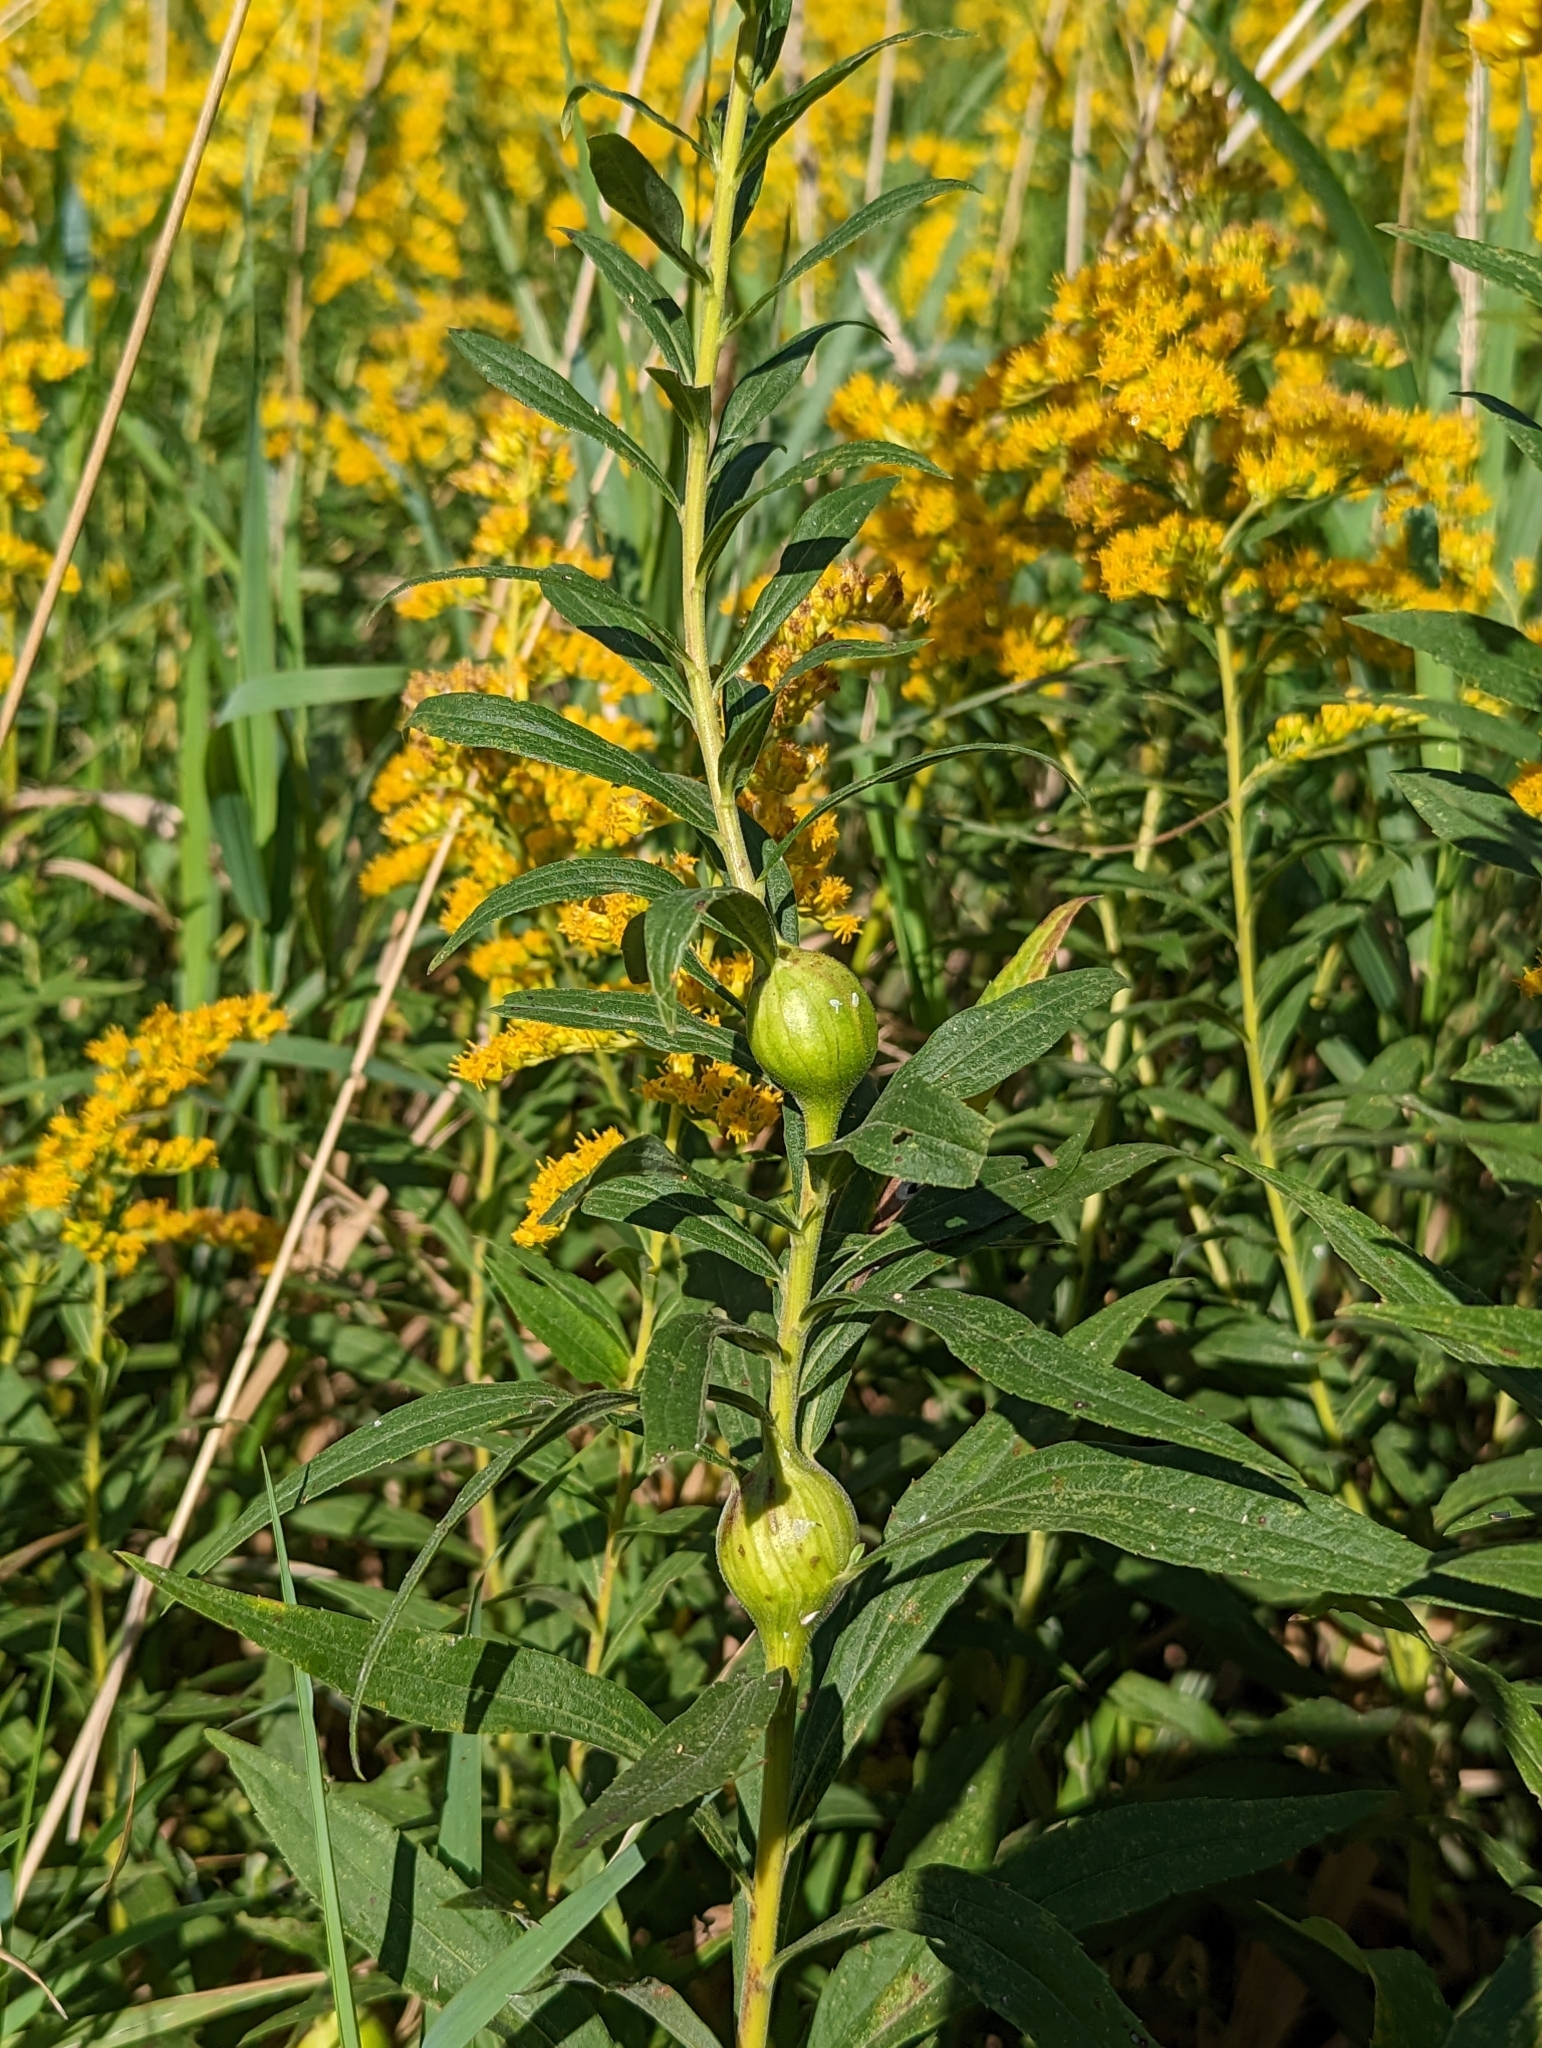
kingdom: Animalia
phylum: Arthropoda
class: Insecta
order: Diptera
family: Tephritidae
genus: Eurosta
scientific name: Eurosta solidaginis
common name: Goldenrod gall fly
